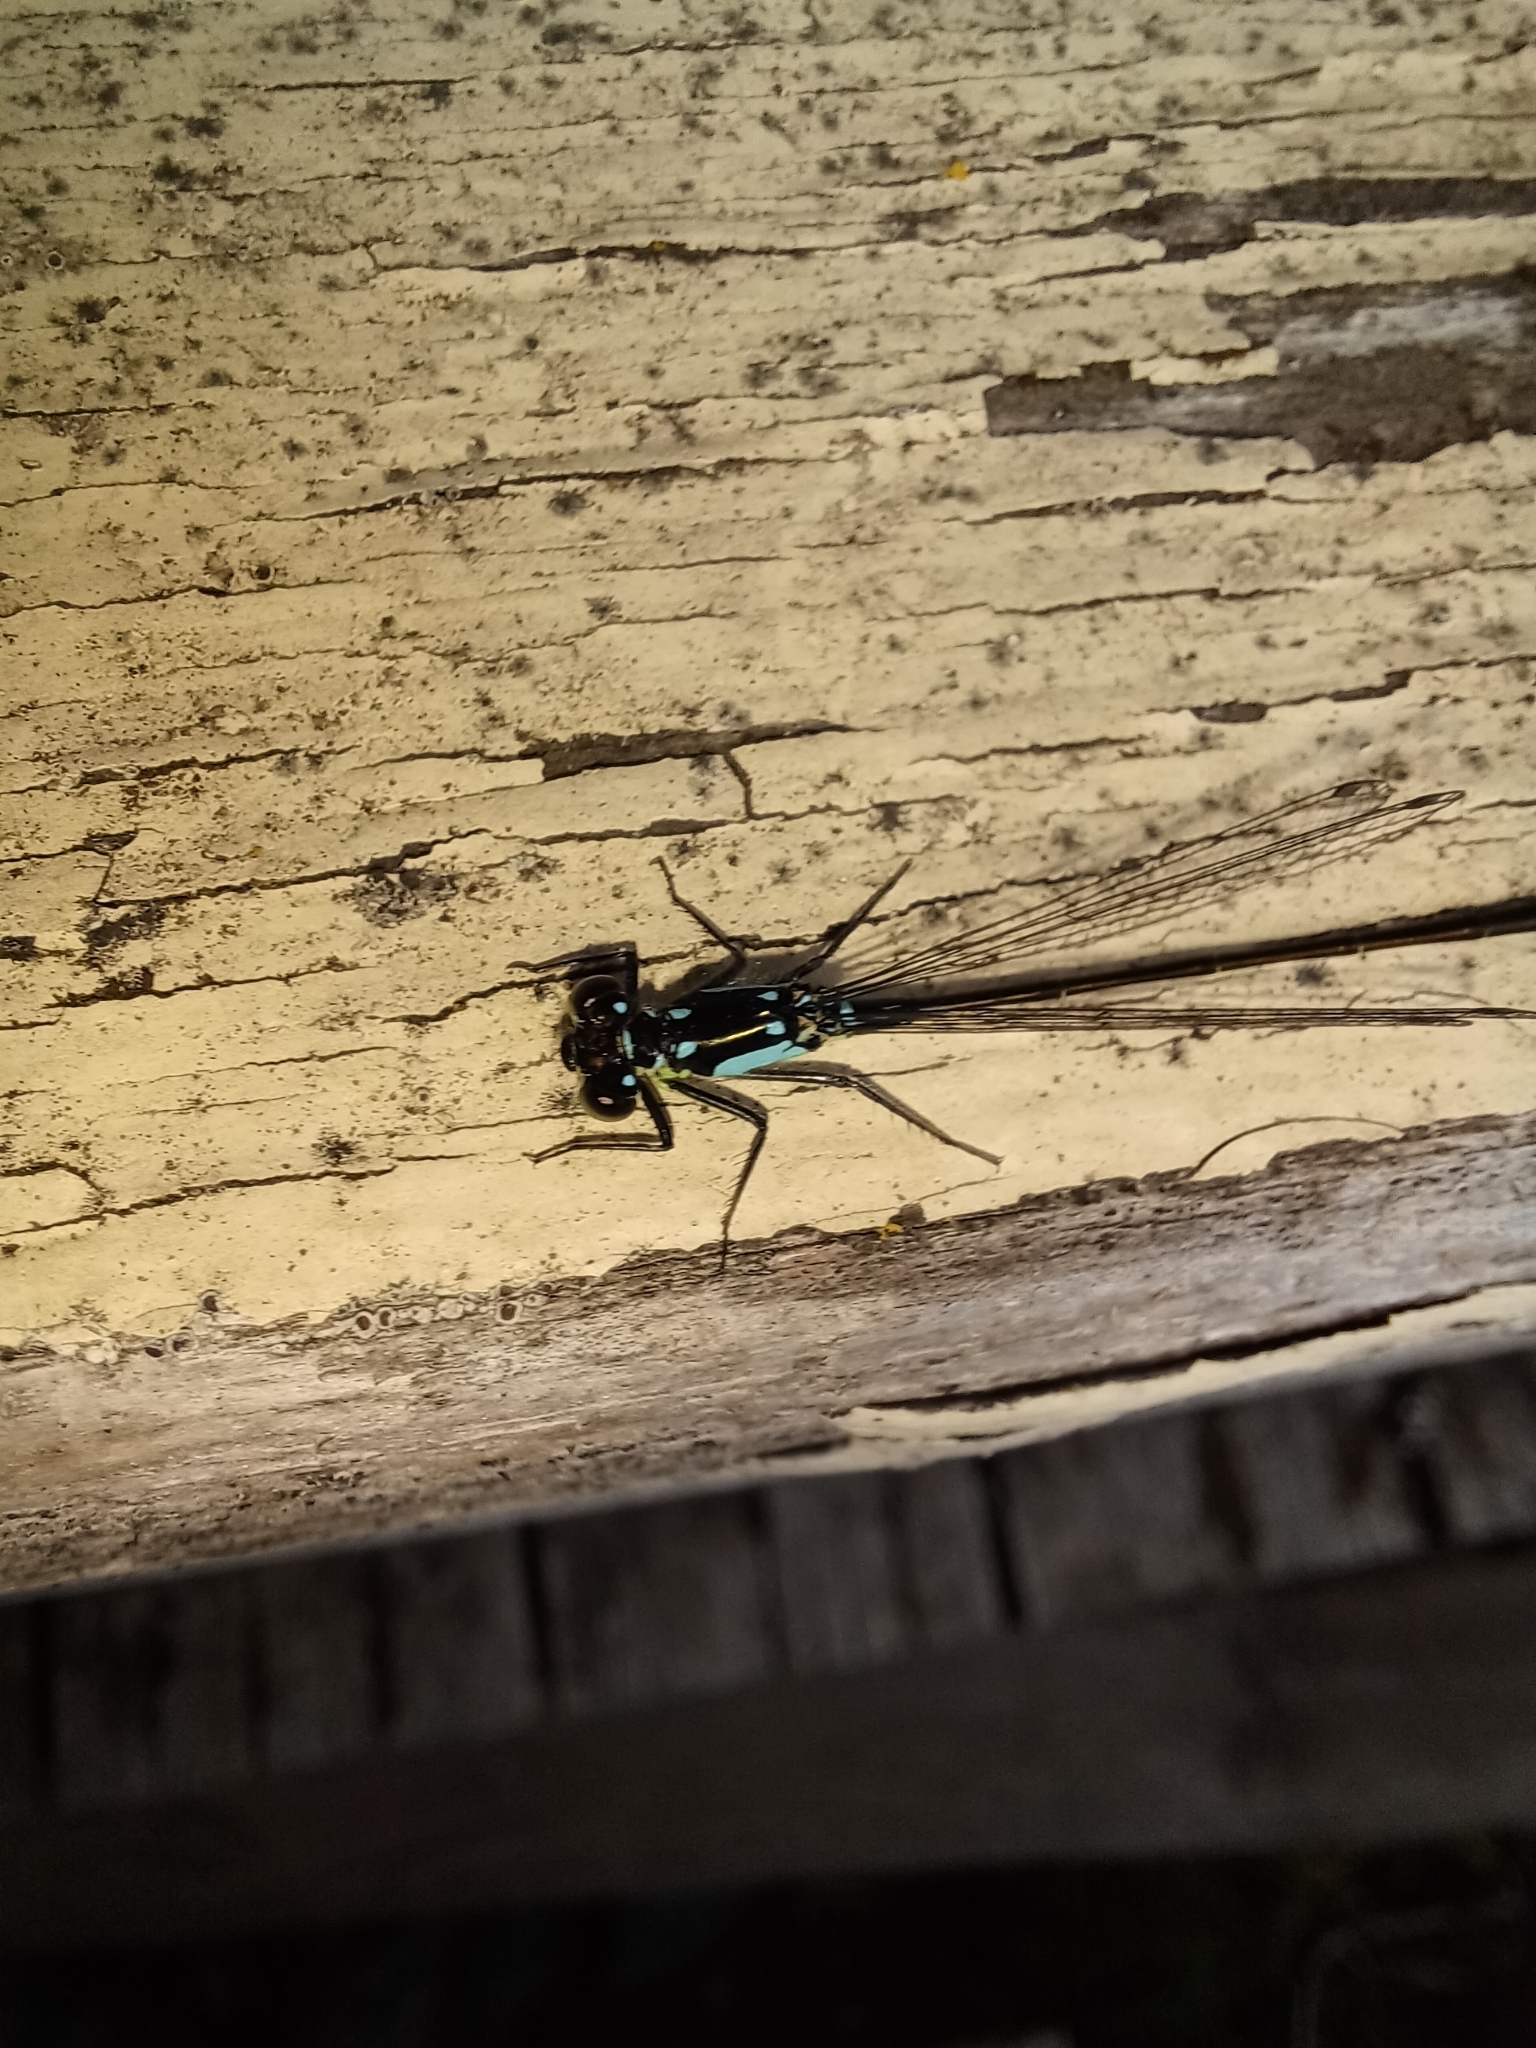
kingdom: Animalia
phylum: Arthropoda
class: Insecta
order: Odonata
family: Coenagrionidae
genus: Ischnura
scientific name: Ischnura cervula
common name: Pacific forktail
